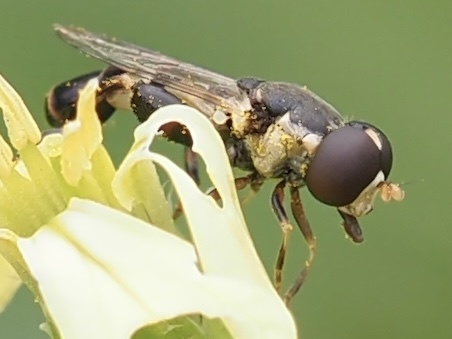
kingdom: Animalia
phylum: Arthropoda
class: Insecta
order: Diptera
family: Syrphidae
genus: Syritta
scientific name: Syritta pipiens
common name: Hover fly
